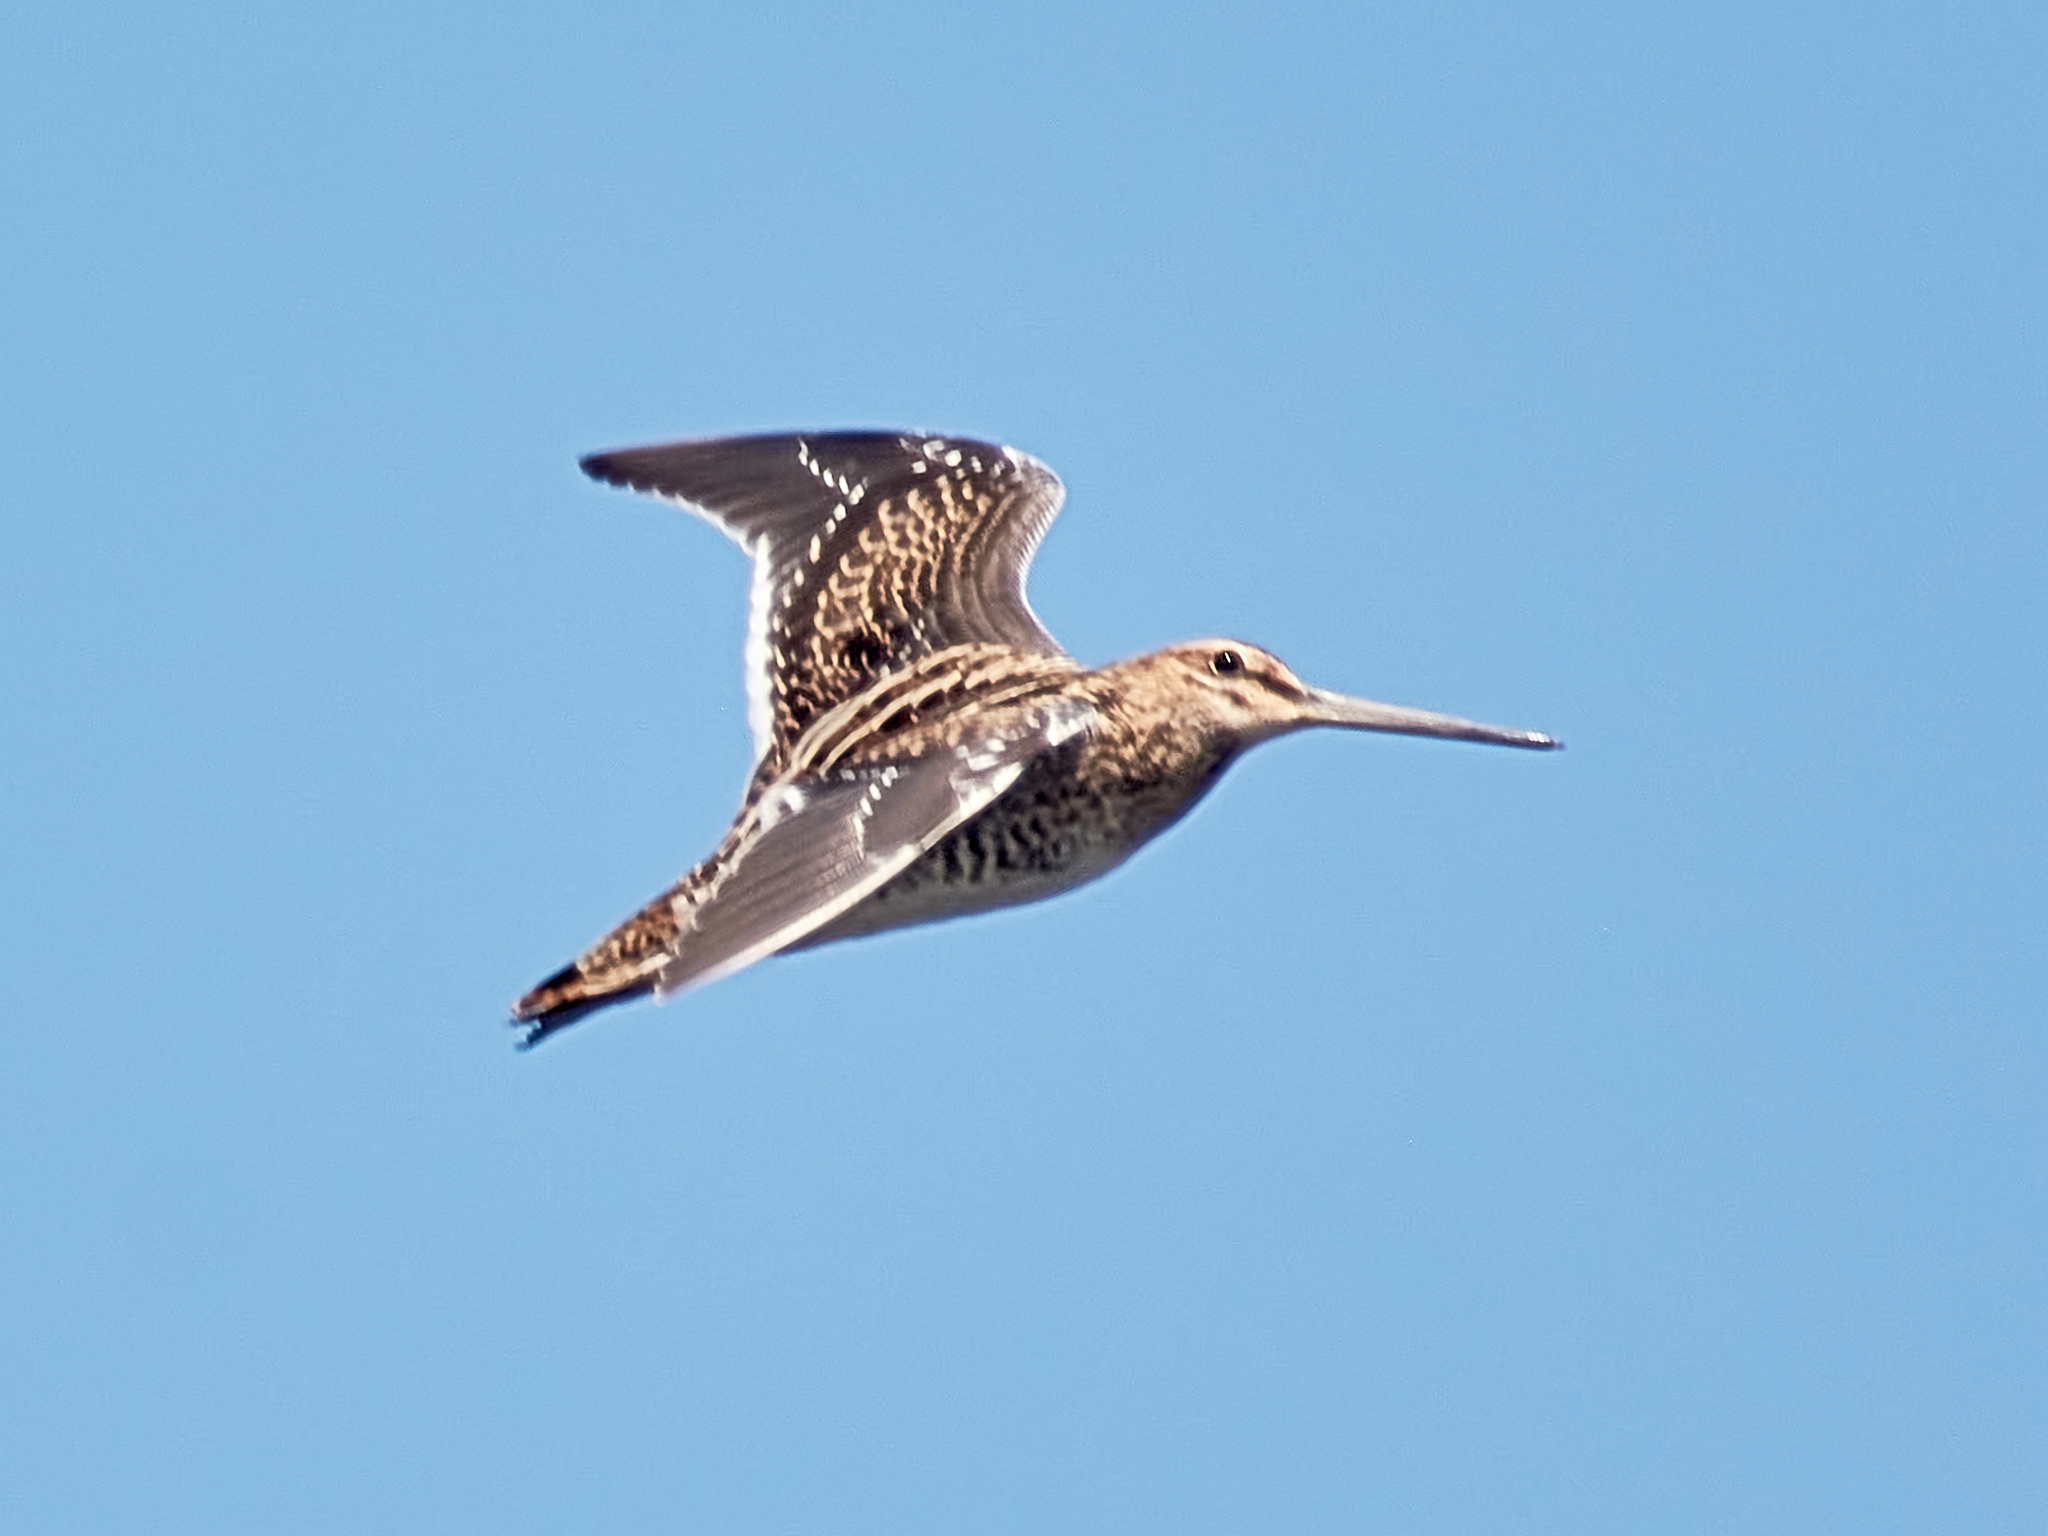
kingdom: Animalia
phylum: Chordata
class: Aves
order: Charadriiformes
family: Scolopacidae
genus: Gallinago
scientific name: Gallinago gallinago
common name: Common snipe
